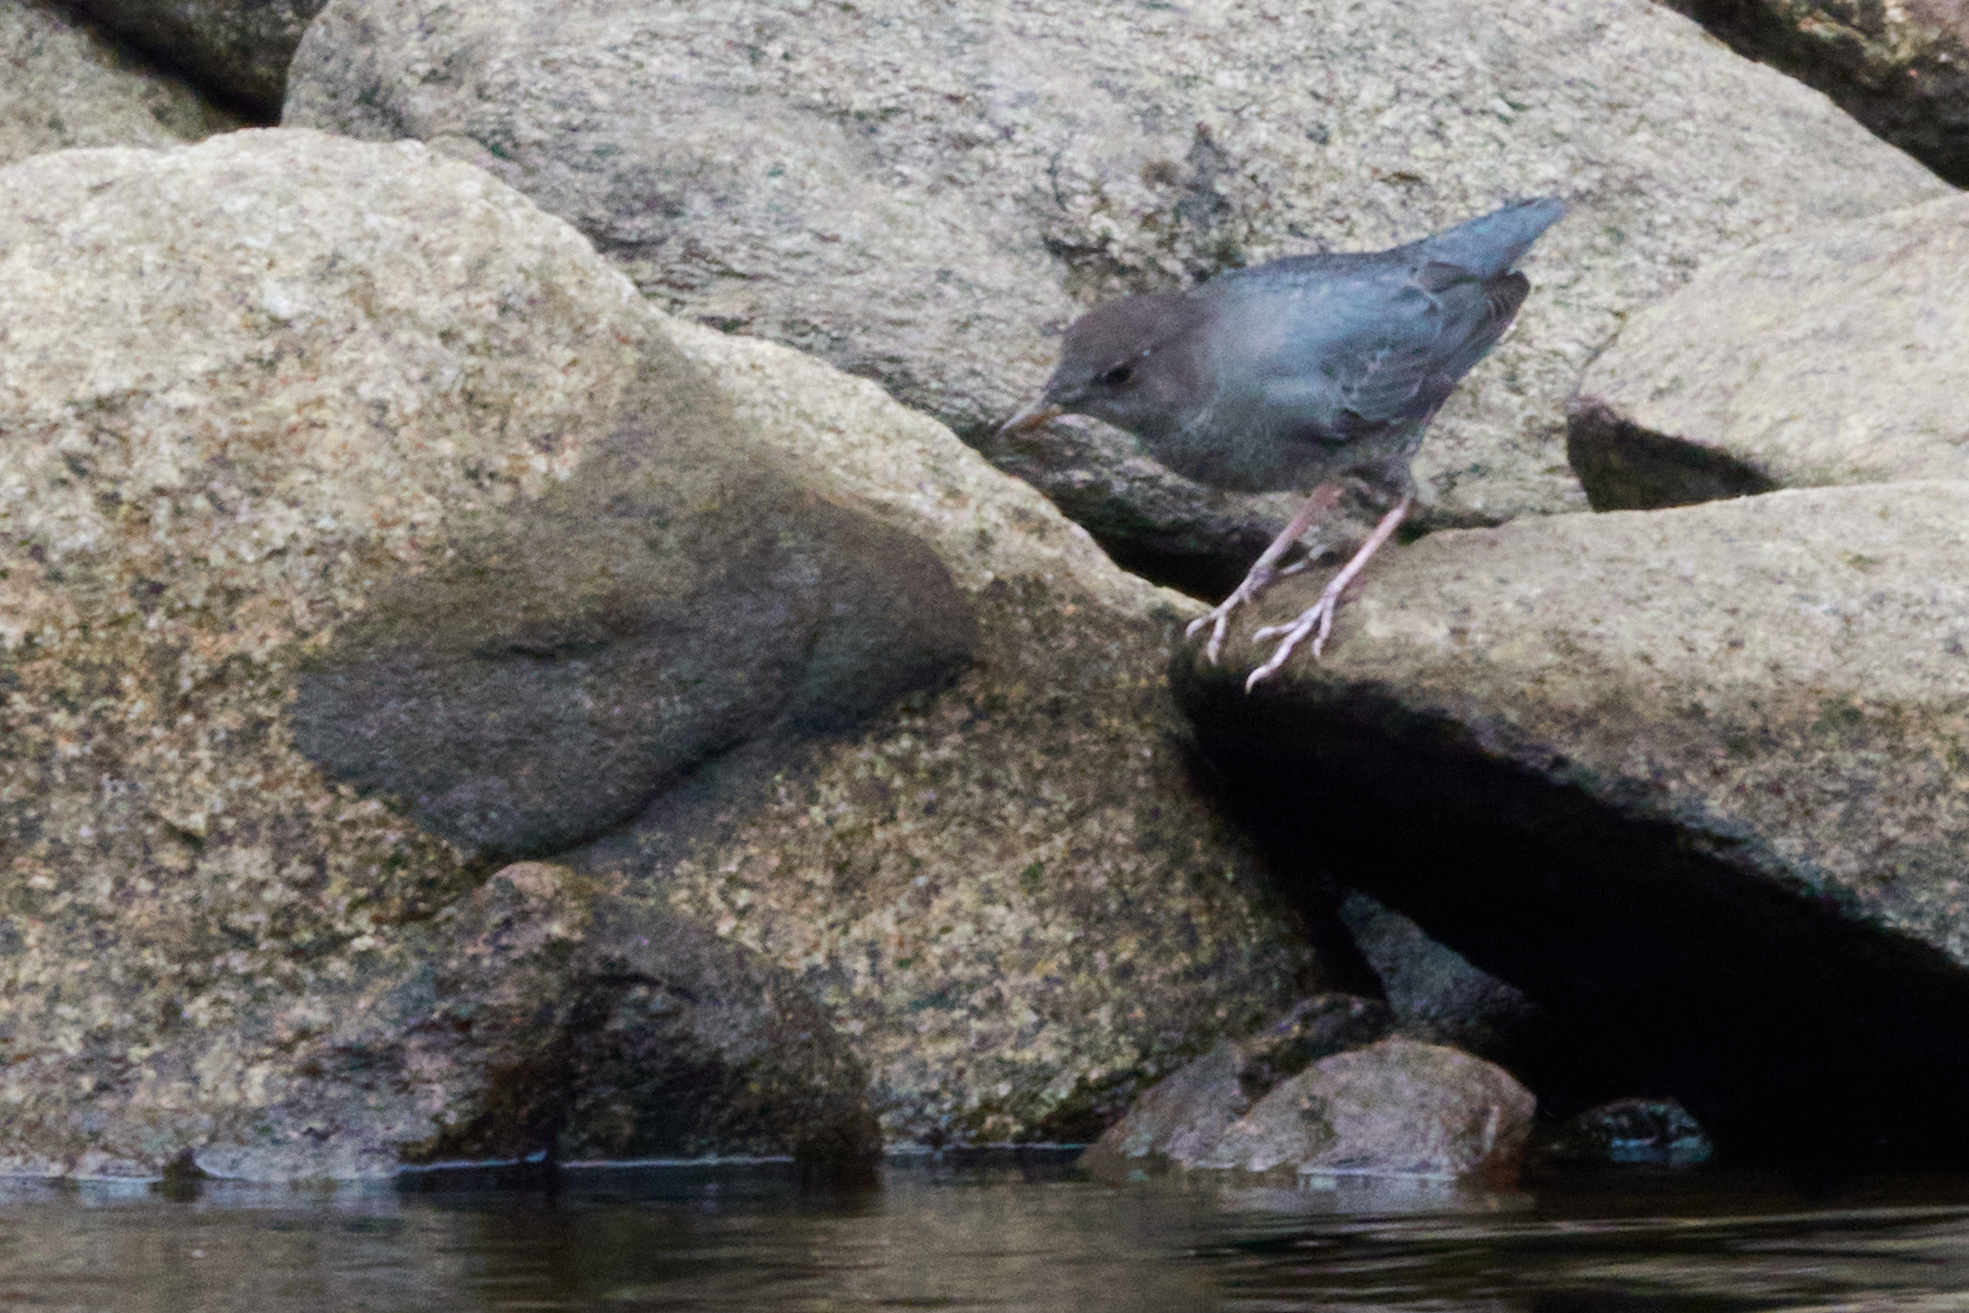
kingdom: Animalia
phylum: Chordata
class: Aves
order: Passeriformes
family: Cinclidae
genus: Cinclus
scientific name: Cinclus mexicanus
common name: American dipper
